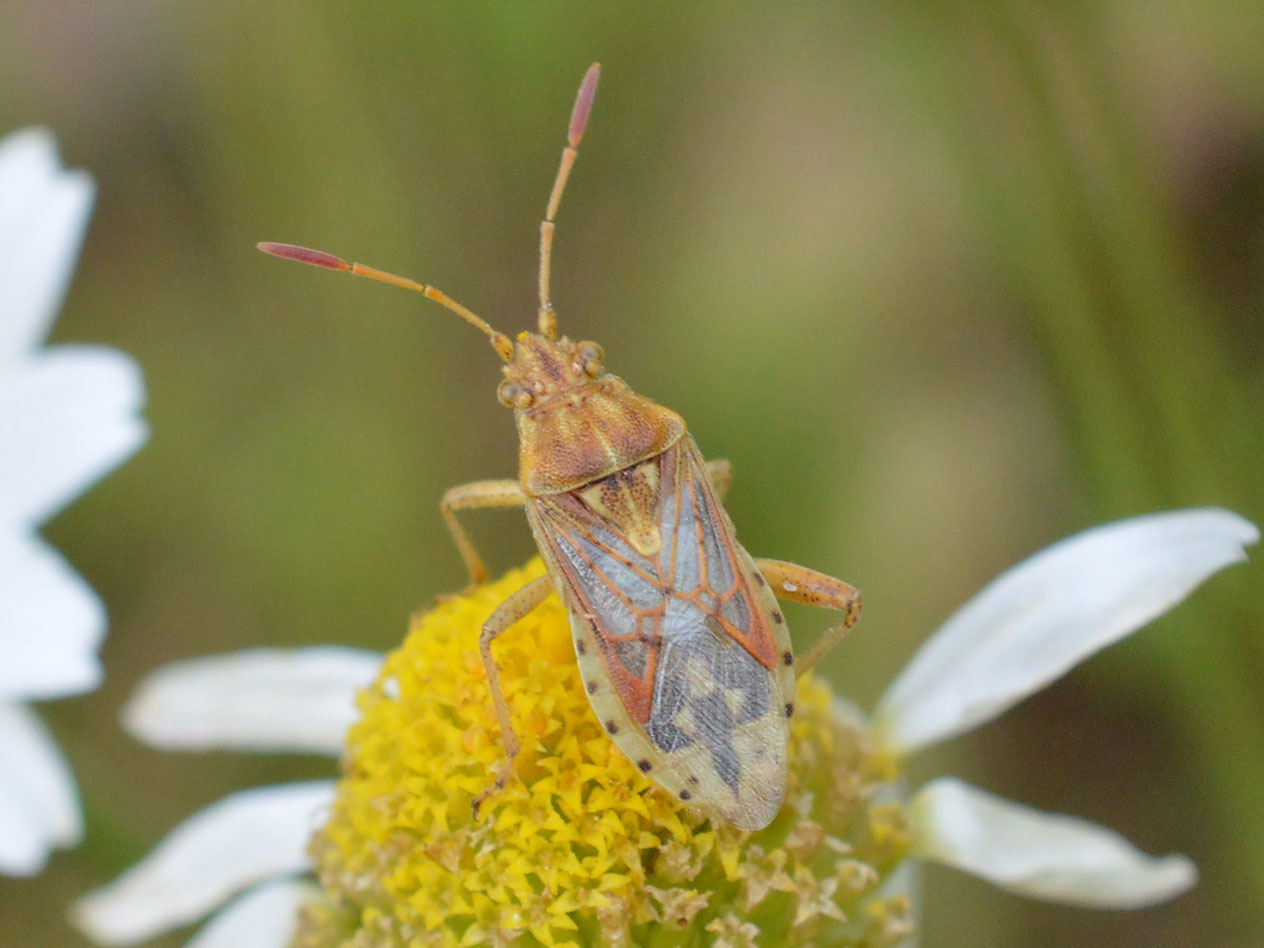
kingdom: Animalia
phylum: Arthropoda
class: Insecta
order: Hemiptera
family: Rhopalidae
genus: Stictopleurus
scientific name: Stictopleurus abutilon
